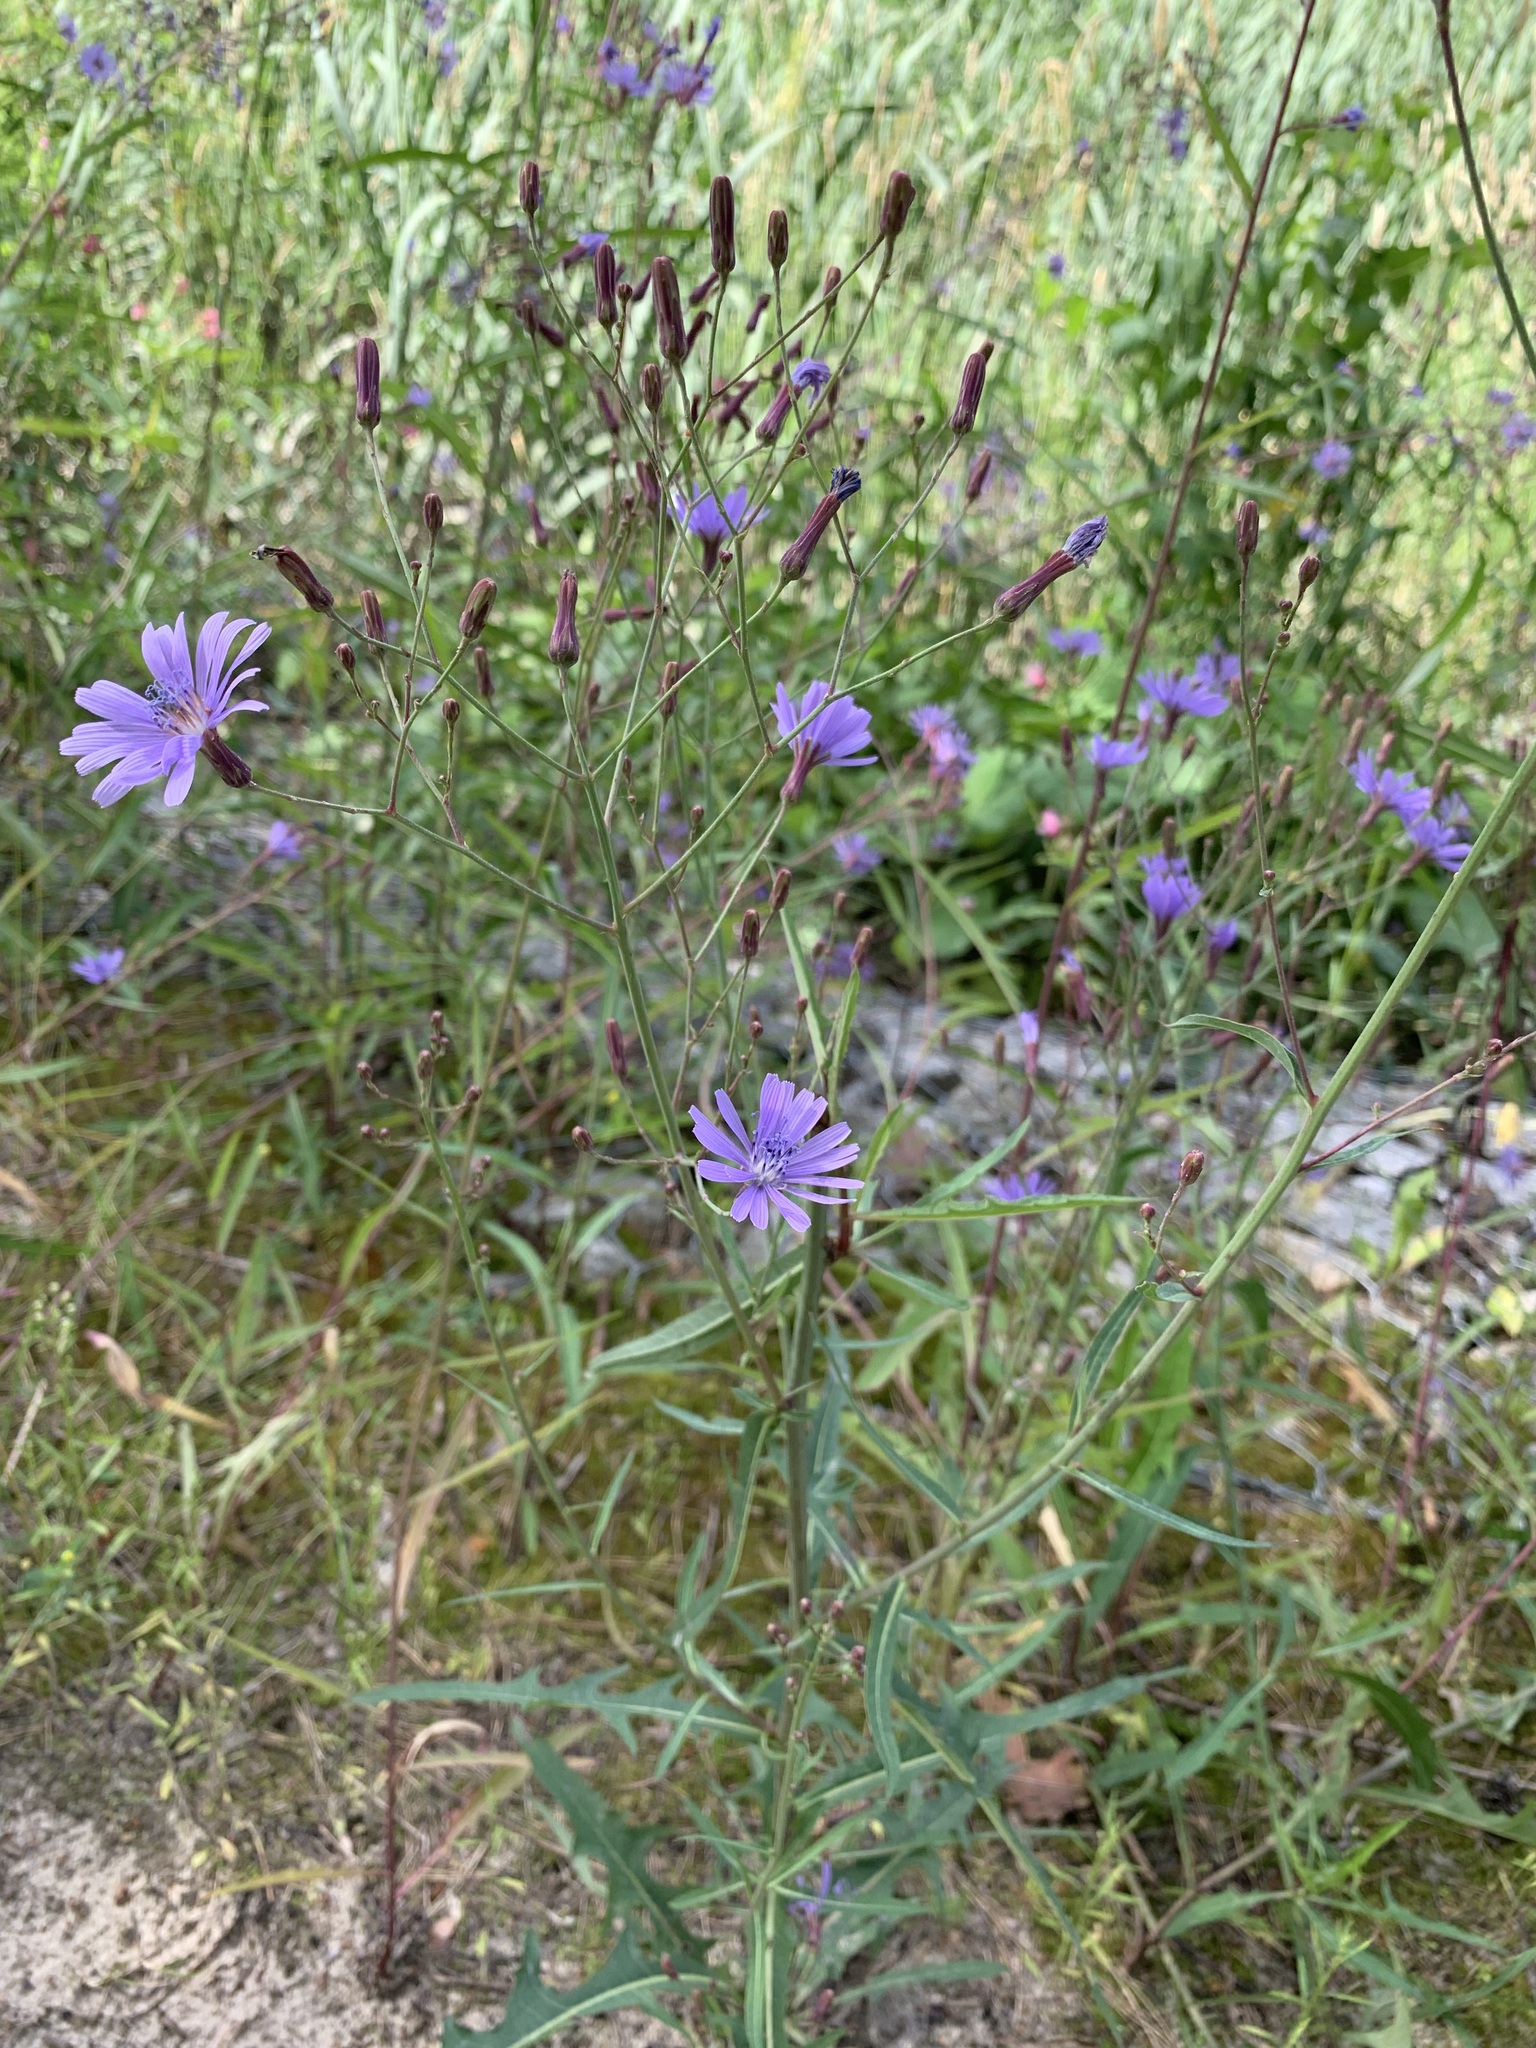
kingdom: Plantae
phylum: Tracheophyta
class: Magnoliopsida
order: Asterales
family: Asteraceae
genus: Lactuca
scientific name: Lactuca tatarica
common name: Blue lettuce
